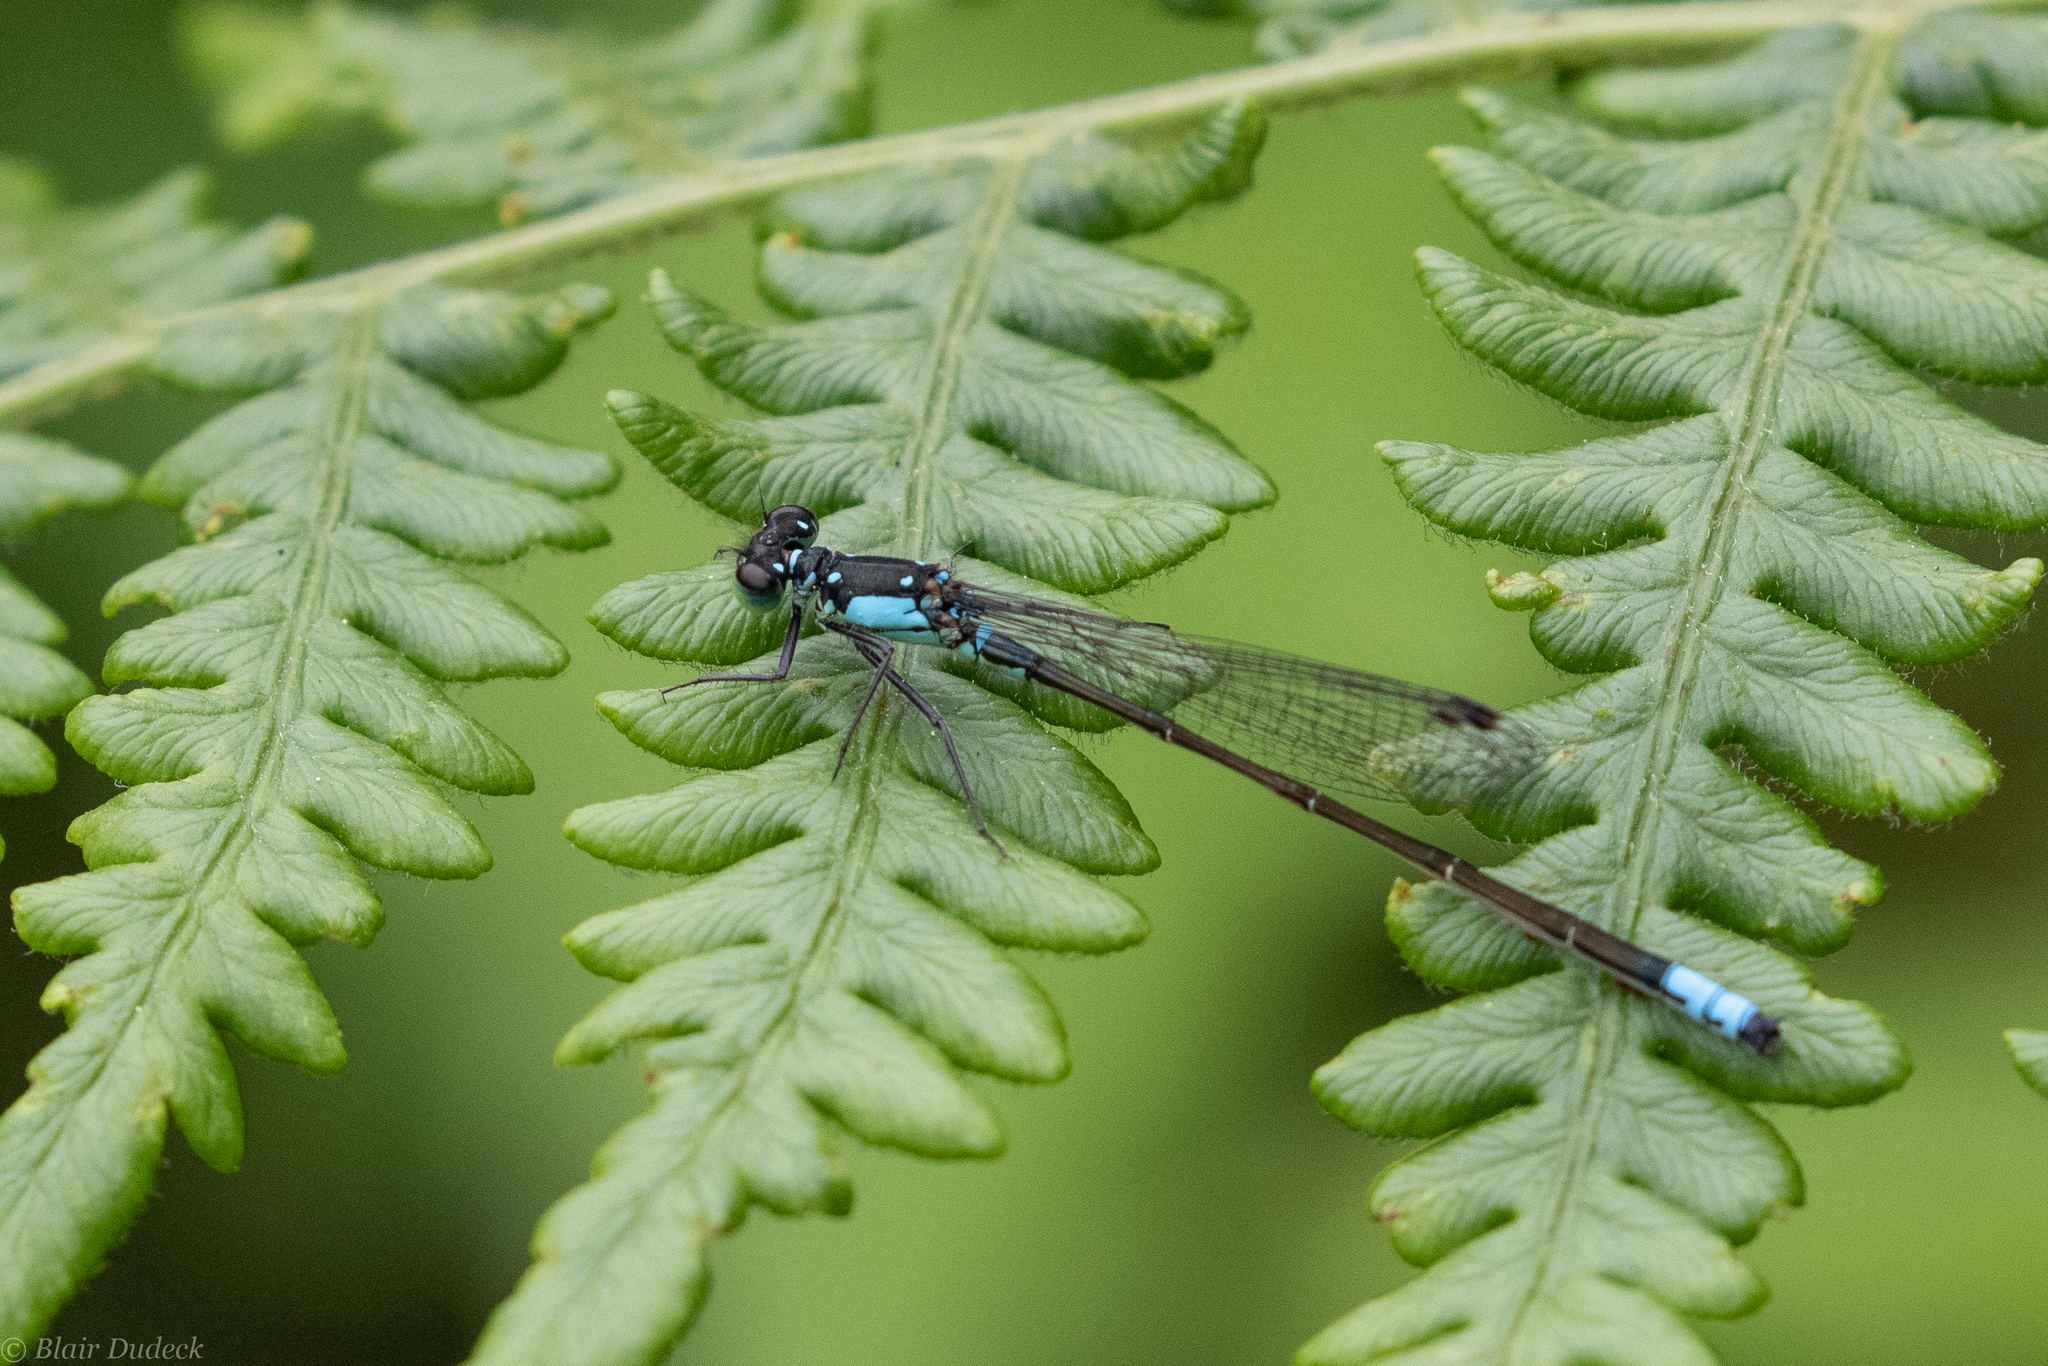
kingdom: Animalia
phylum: Arthropoda
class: Insecta
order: Odonata
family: Coenagrionidae
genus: Ischnura
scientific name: Ischnura cervula
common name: Pacific forktail
